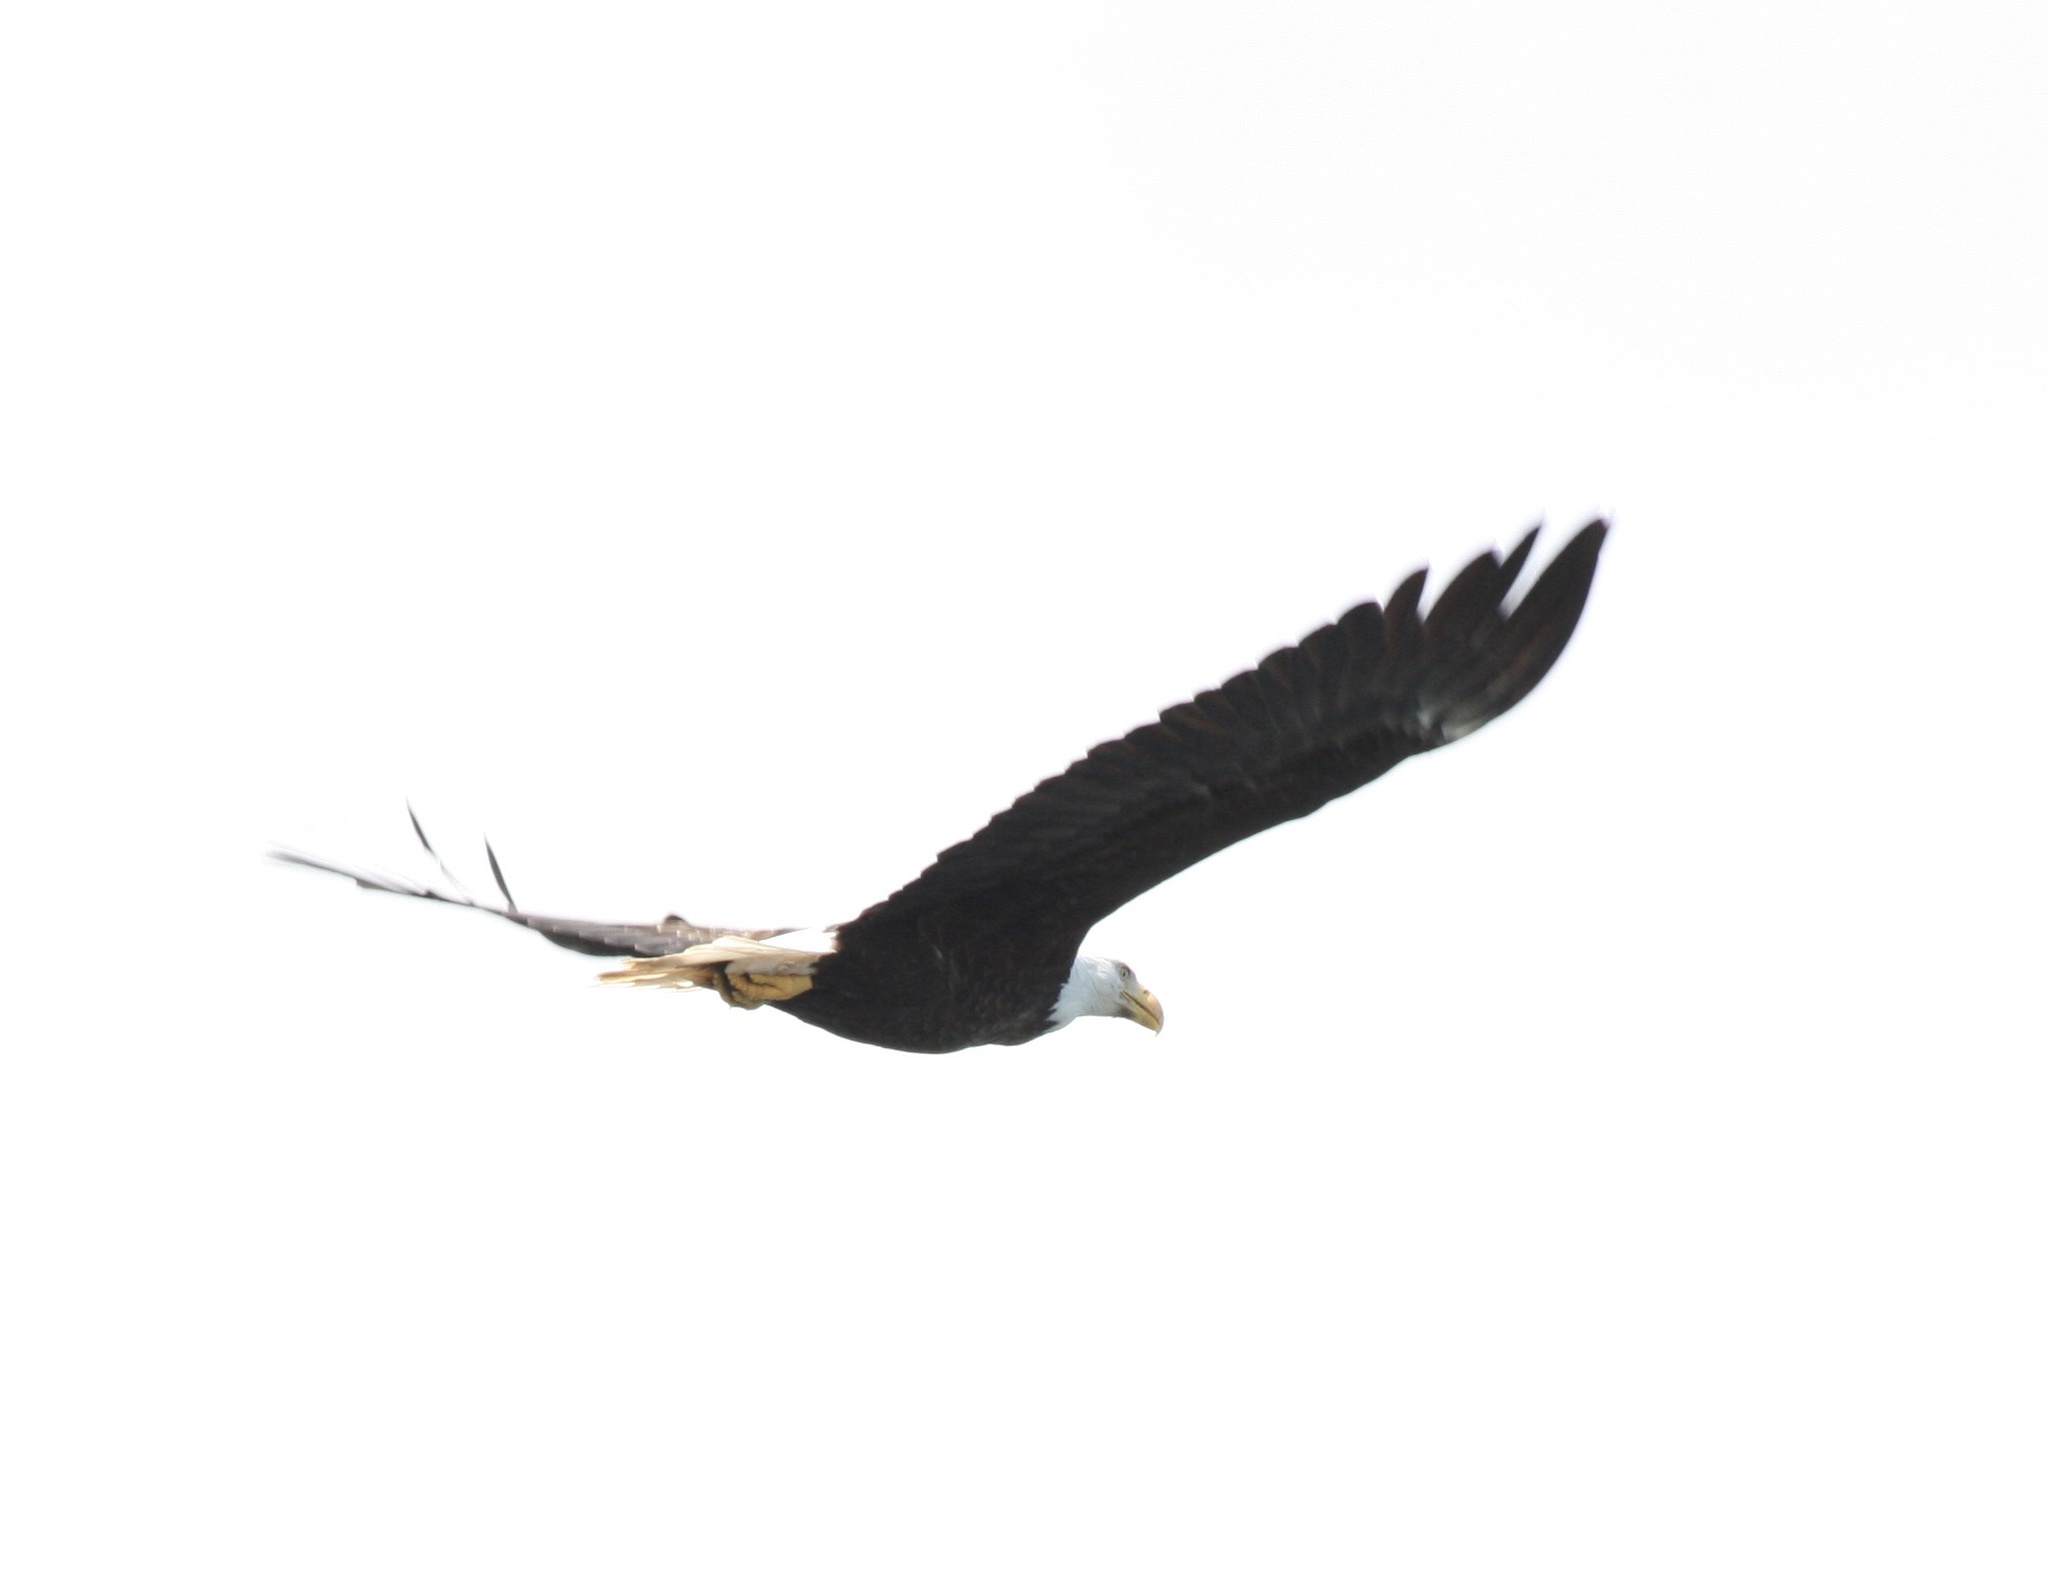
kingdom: Animalia
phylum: Chordata
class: Aves
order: Accipitriformes
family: Accipitridae
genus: Haliaeetus
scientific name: Haliaeetus leucocephalus
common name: Bald eagle
